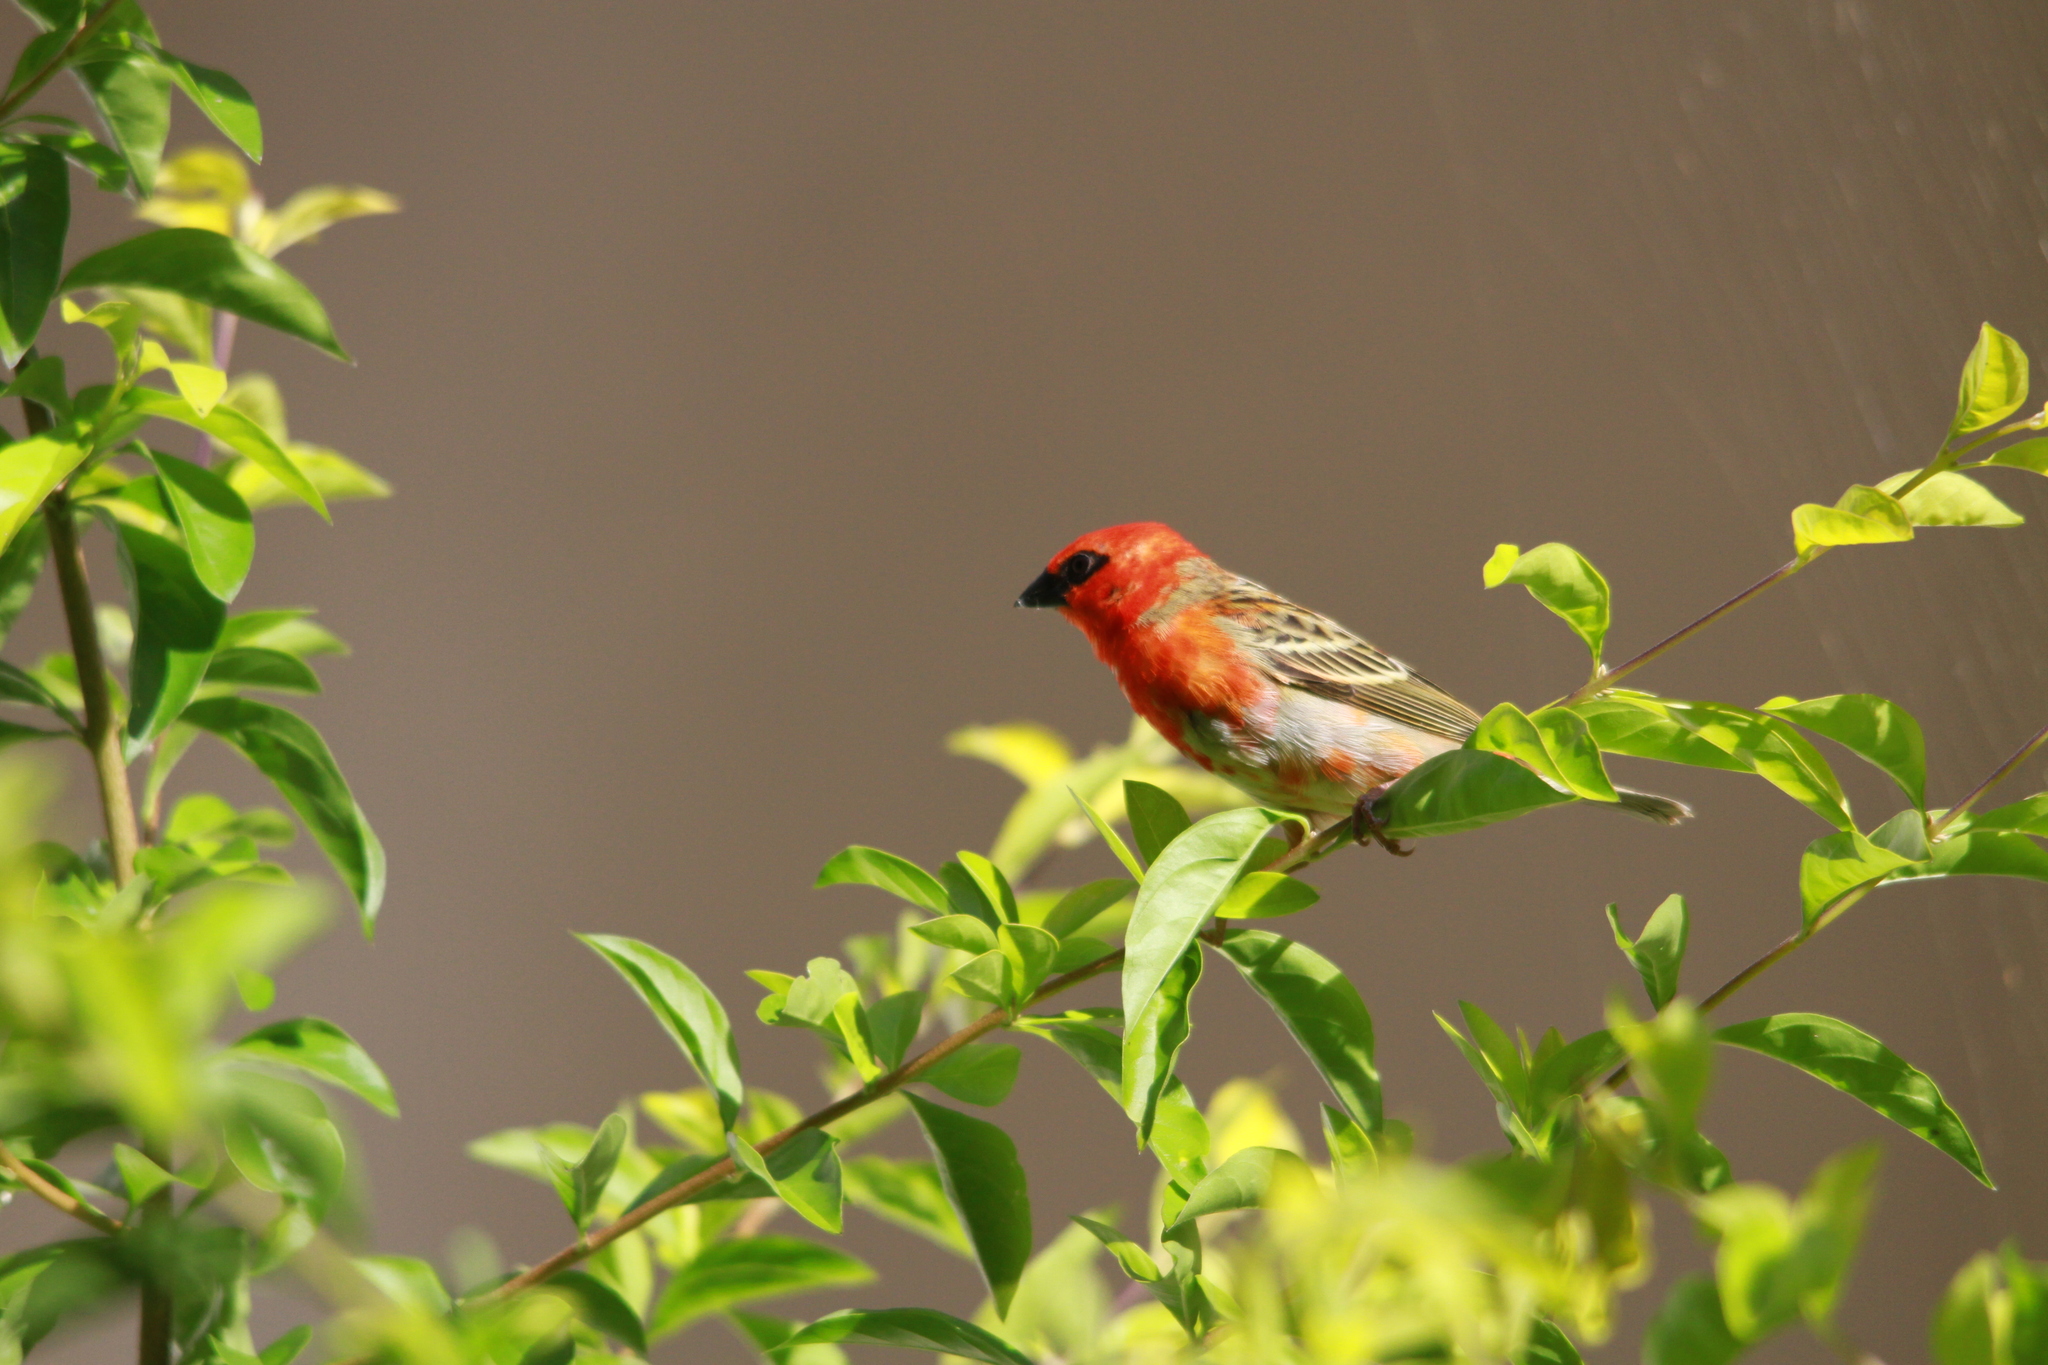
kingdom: Animalia
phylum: Chordata
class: Aves
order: Passeriformes
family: Ploceidae
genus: Foudia
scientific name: Foudia madagascariensis
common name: Red fody
